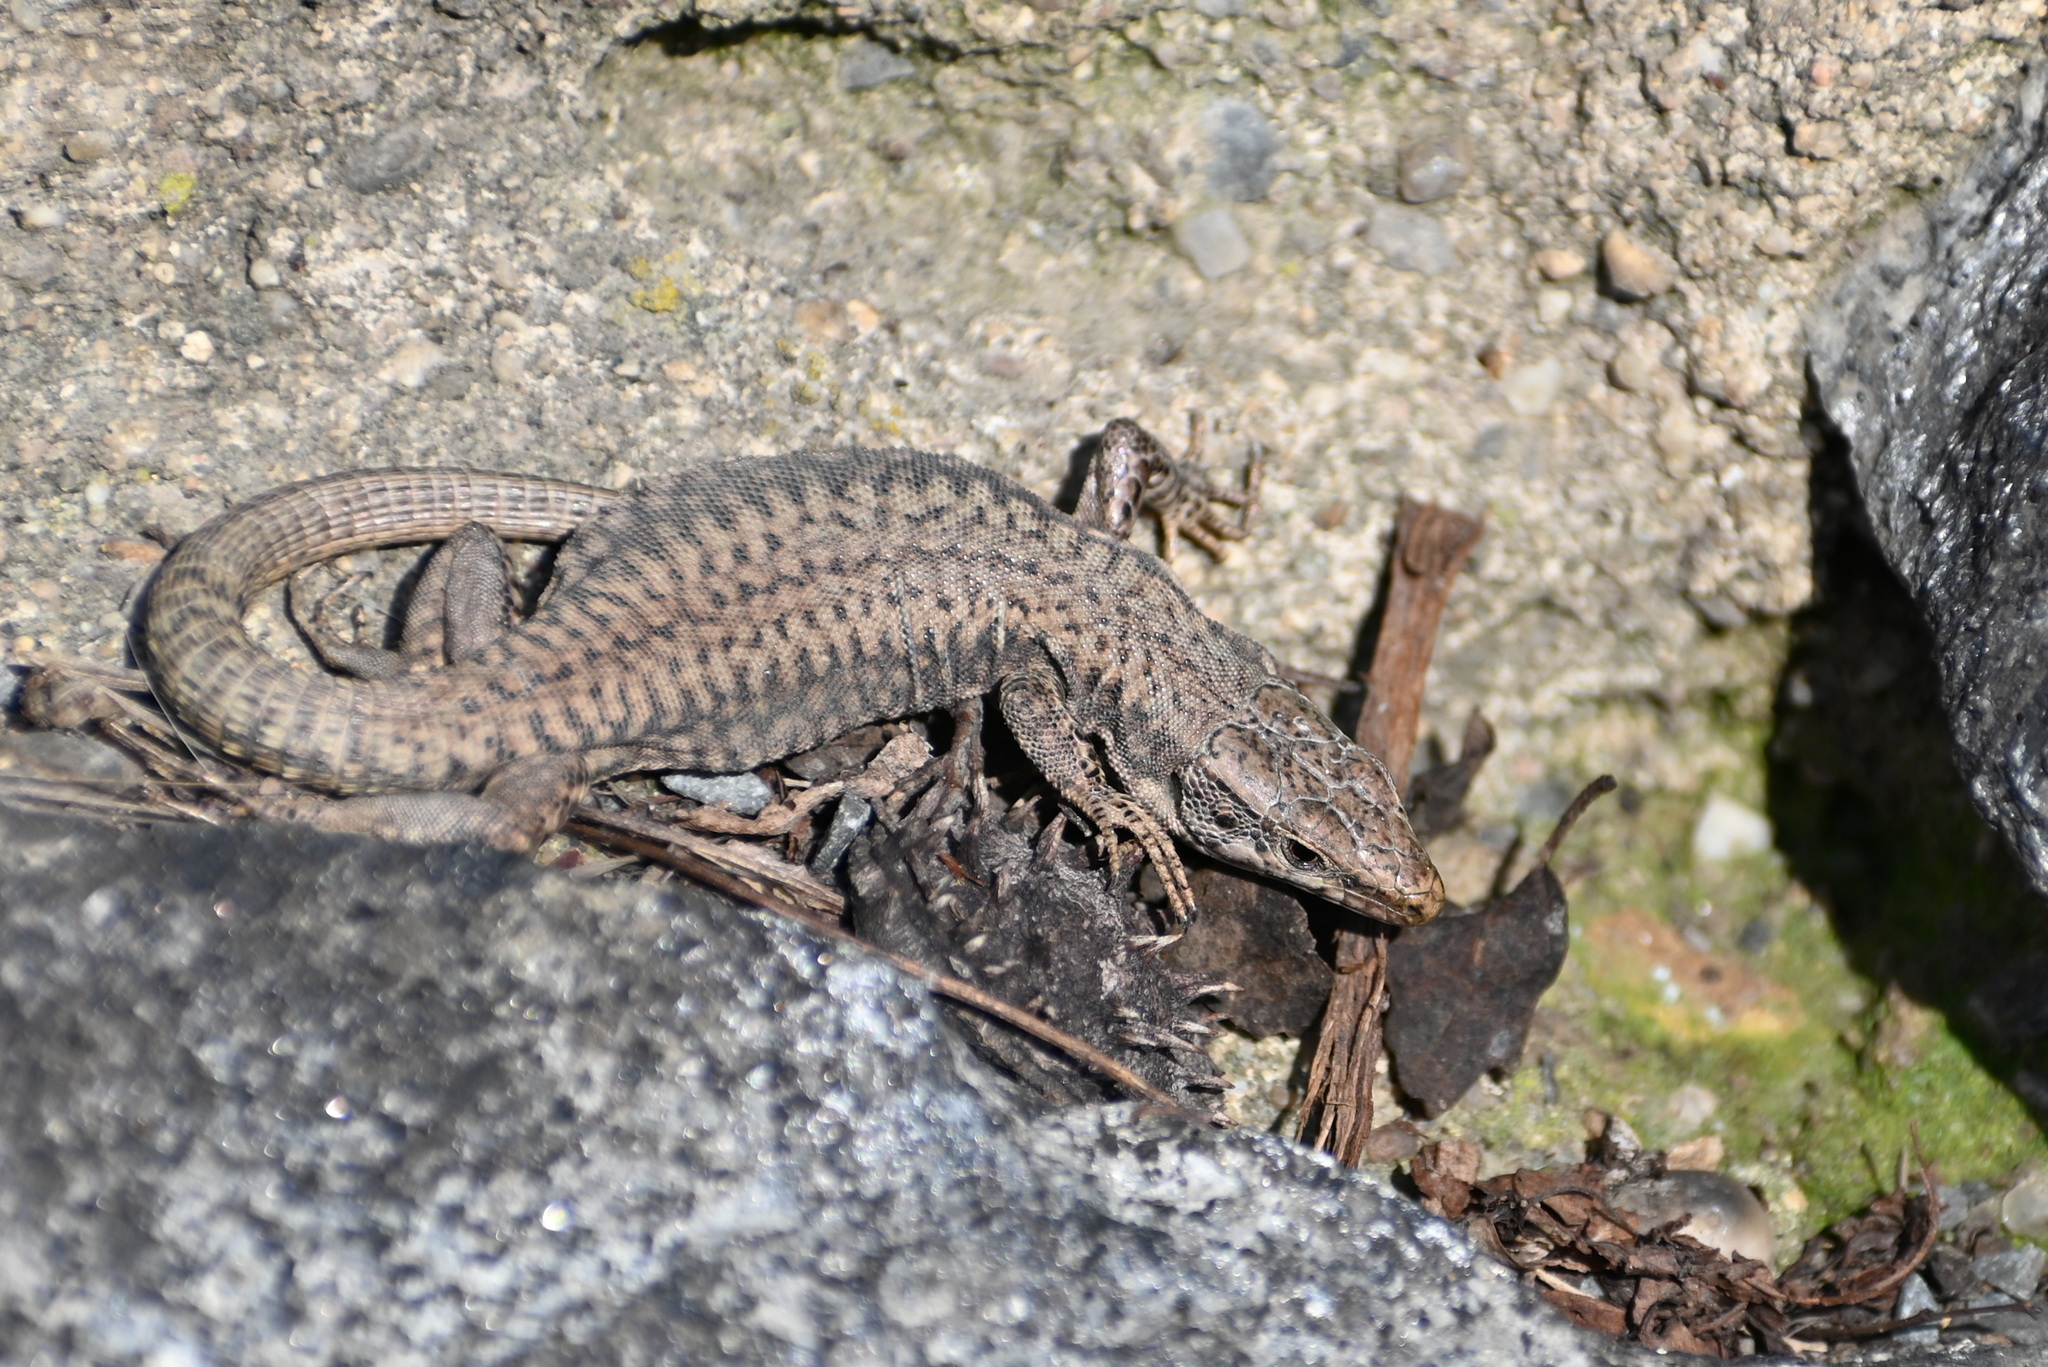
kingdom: Animalia
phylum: Chordata
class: Squamata
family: Lacertidae
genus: Podarcis
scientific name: Podarcis muralis
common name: Common wall lizard
